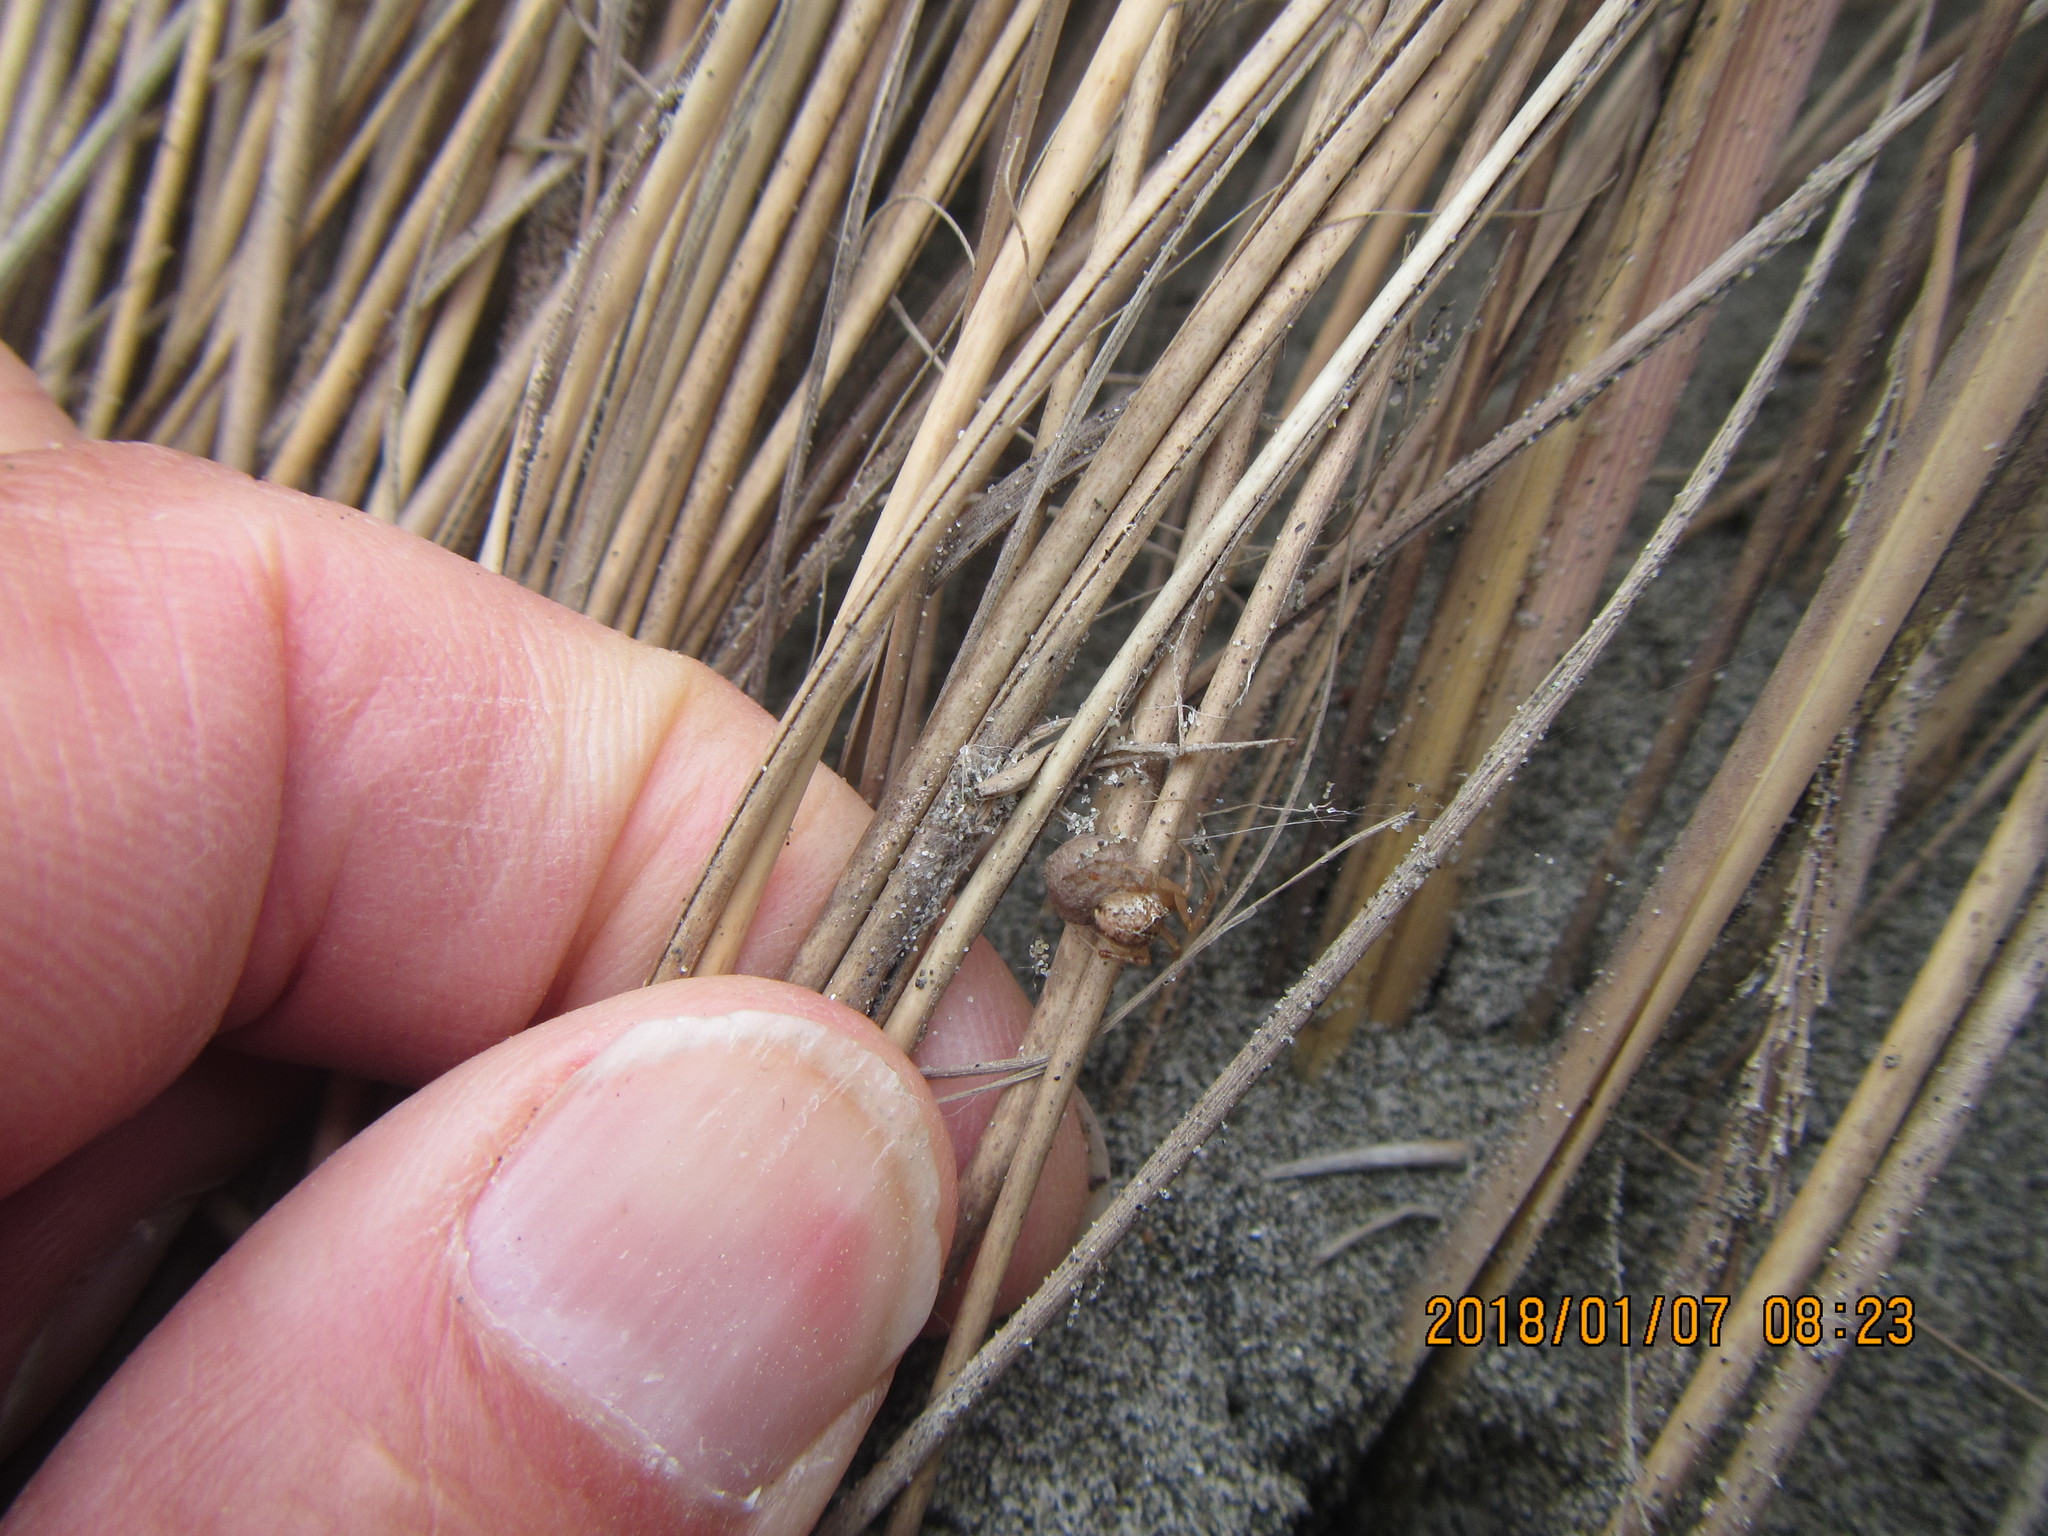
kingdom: Animalia
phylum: Arthropoda
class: Arachnida
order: Araneae
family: Theridiidae
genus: Cryptachaea
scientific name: Cryptachaea veruculata
